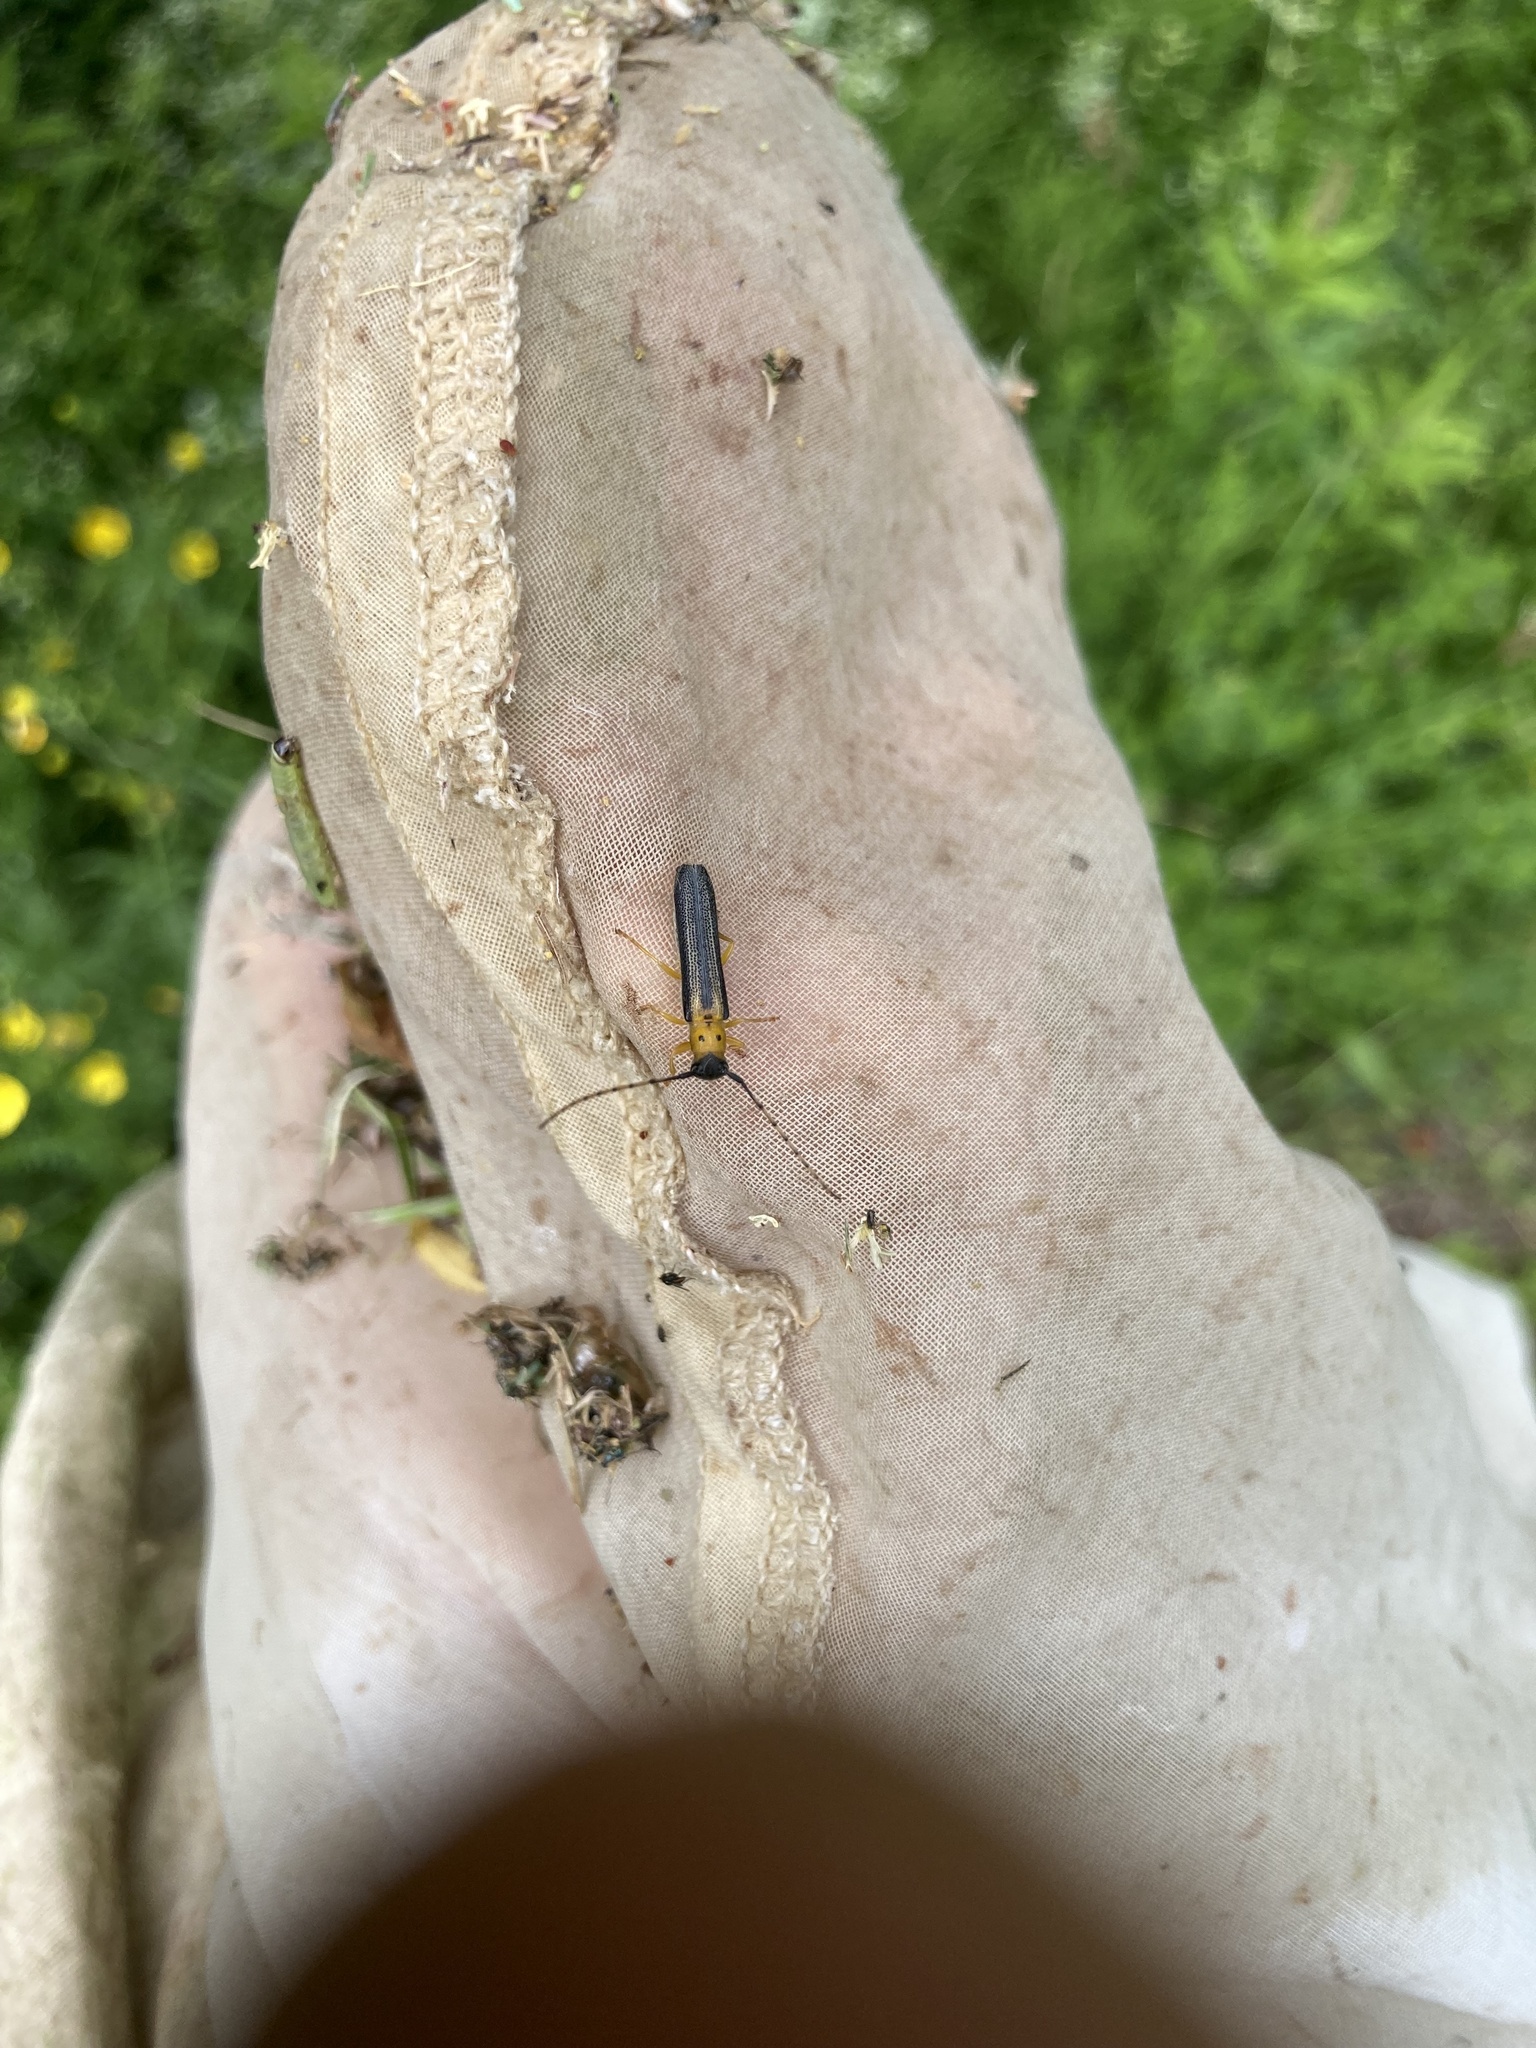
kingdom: Animalia
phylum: Arthropoda
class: Insecta
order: Coleoptera
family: Cerambycidae
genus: Oberea
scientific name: Oberea tripunctata
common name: Dogwood twig borer
